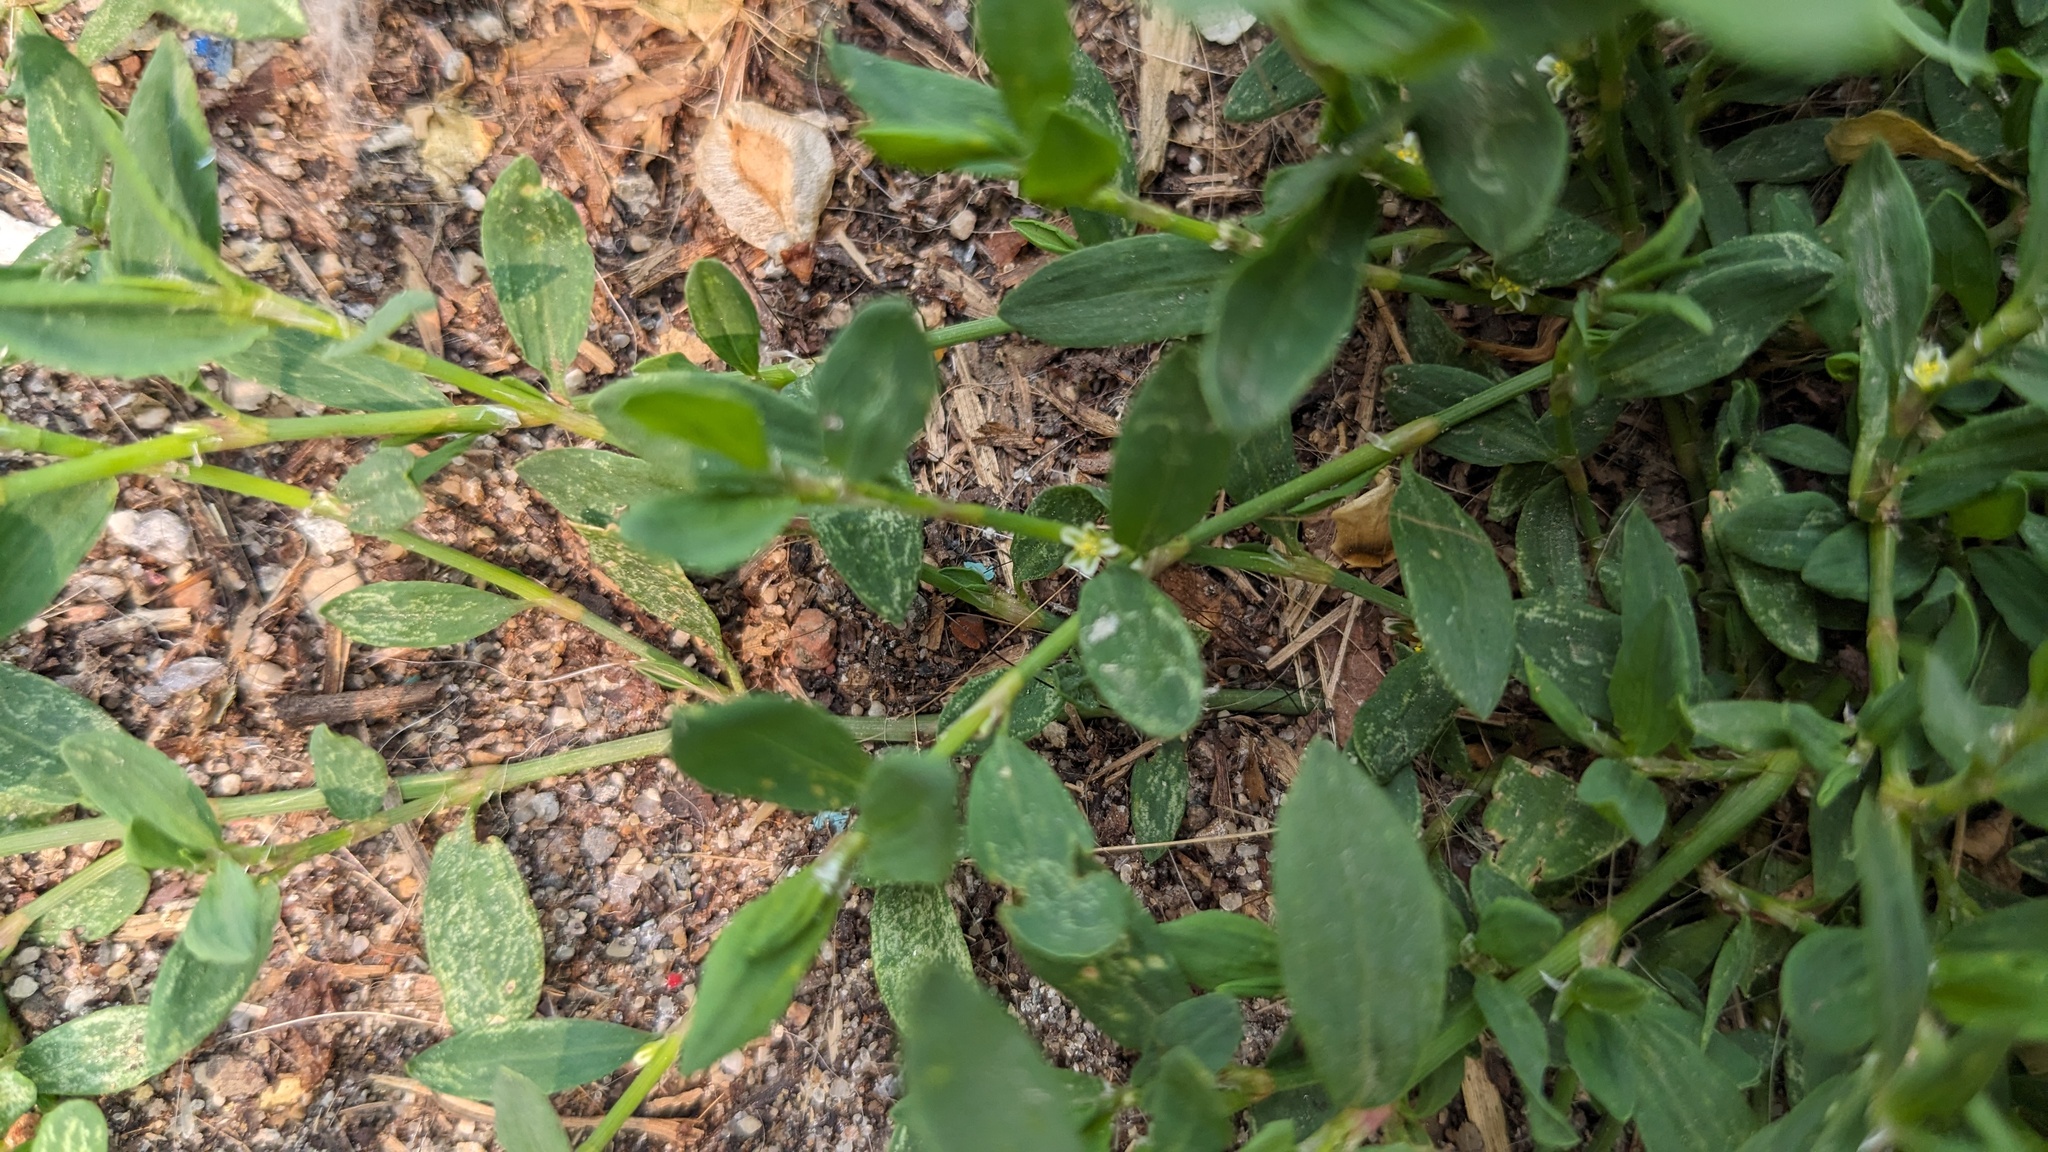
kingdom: Plantae
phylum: Tracheophyta
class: Magnoliopsida
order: Caryophyllales
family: Polygonaceae
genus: Polygonum
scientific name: Polygonum aviculare
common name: Prostrate knotweed
